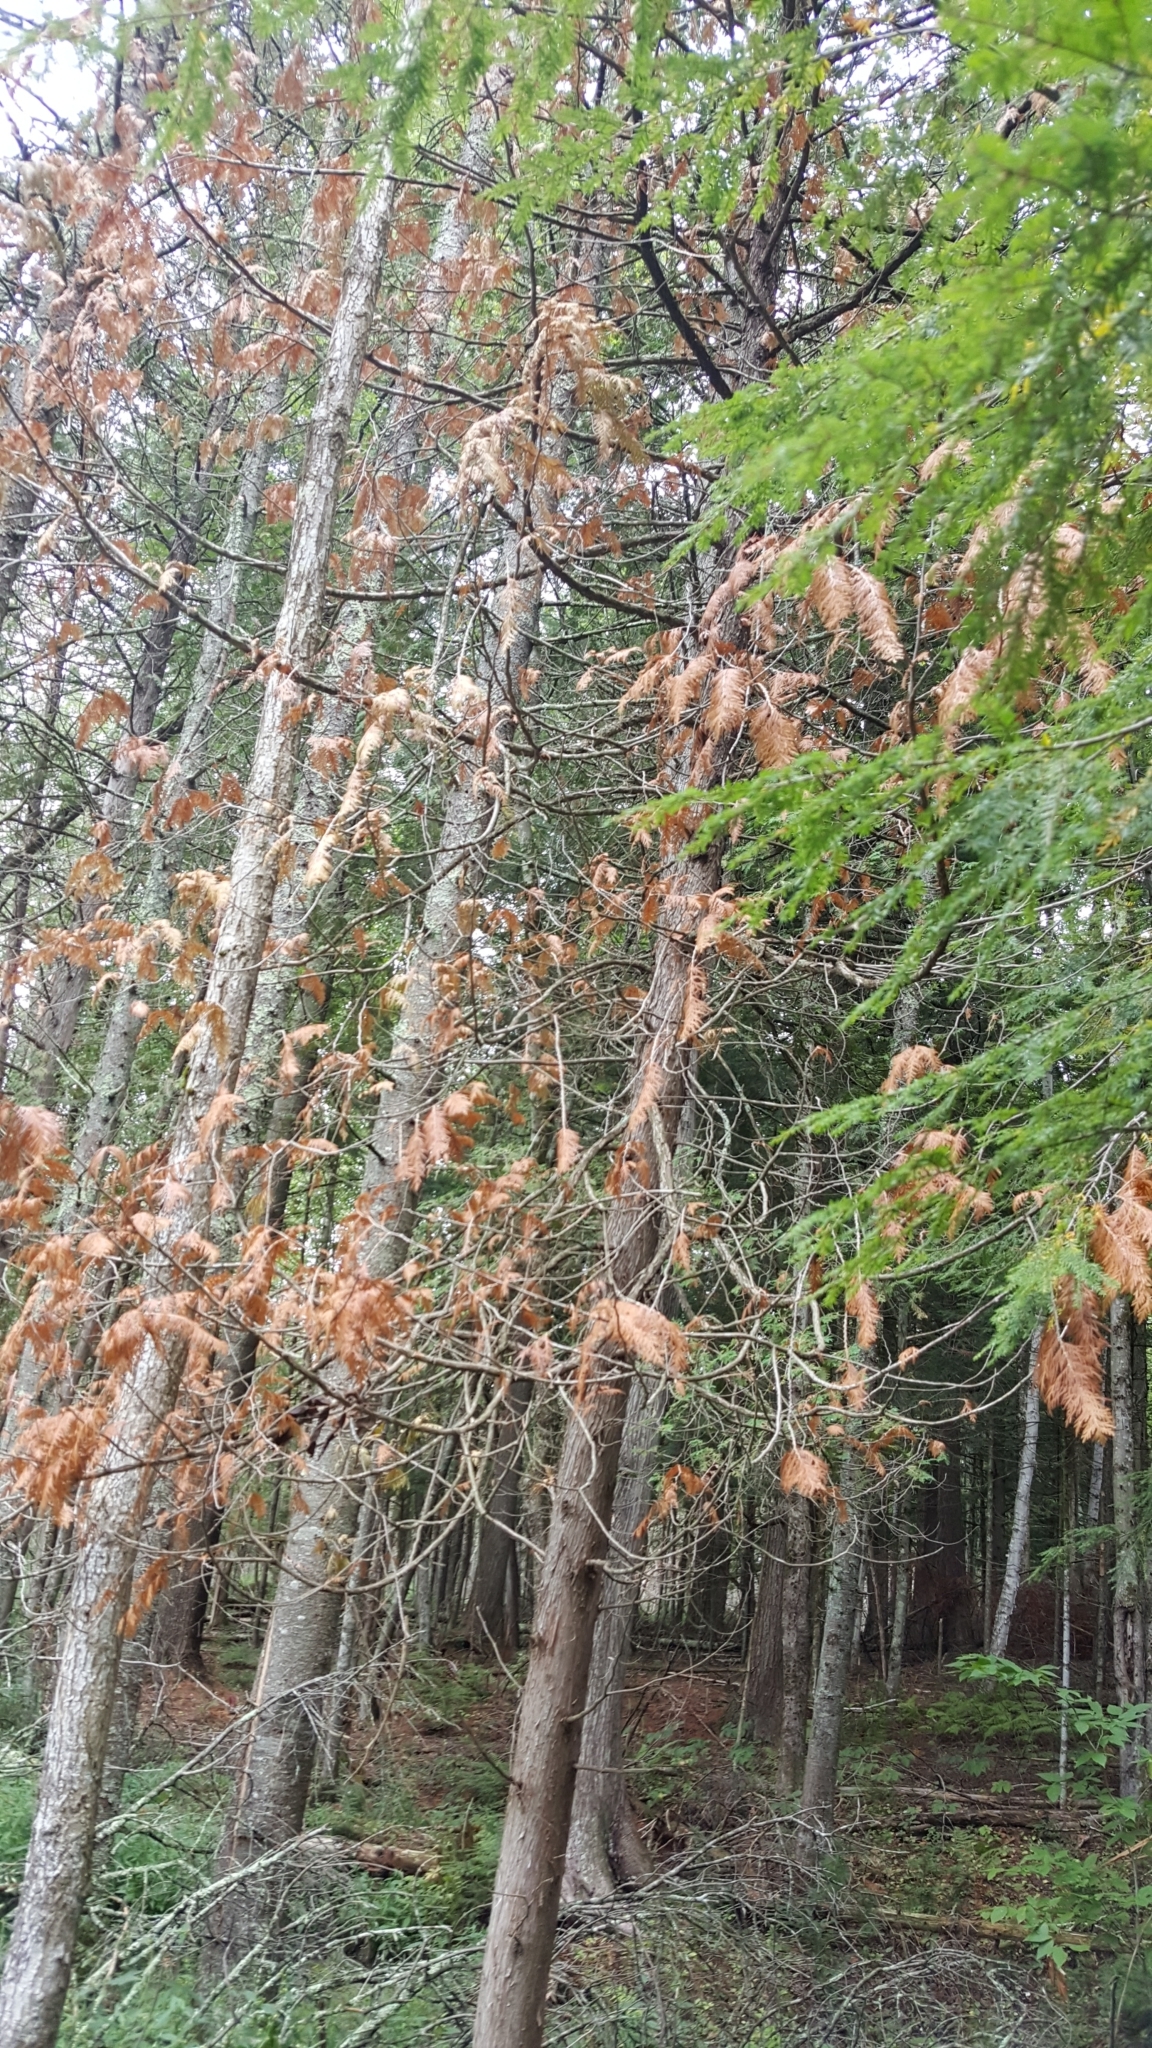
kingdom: Plantae
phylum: Tracheophyta
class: Pinopsida
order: Pinales
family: Cupressaceae
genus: Thuja
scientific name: Thuja occidentalis
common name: Northern white-cedar
